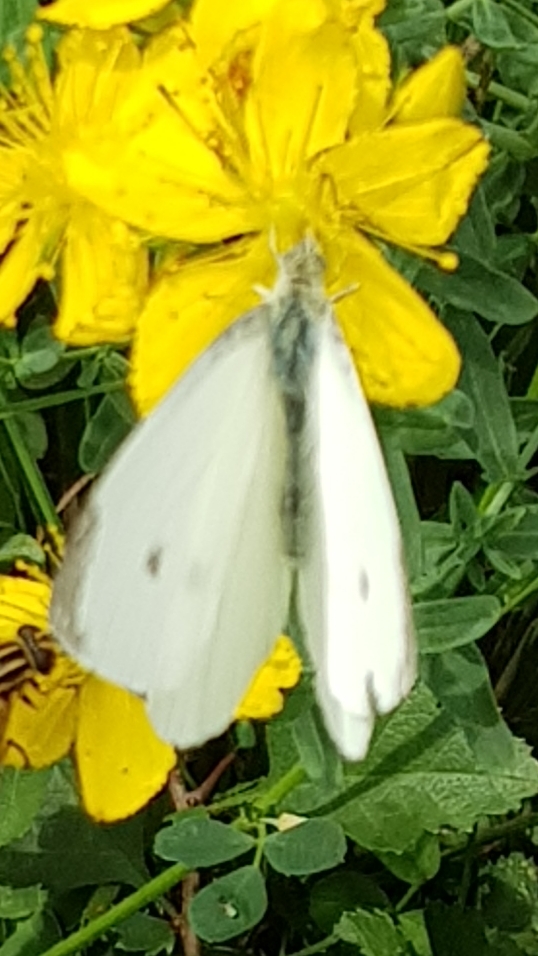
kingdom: Animalia
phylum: Arthropoda
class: Insecta
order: Lepidoptera
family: Pieridae
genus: Pieris
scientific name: Pieris rapae
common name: Small white
